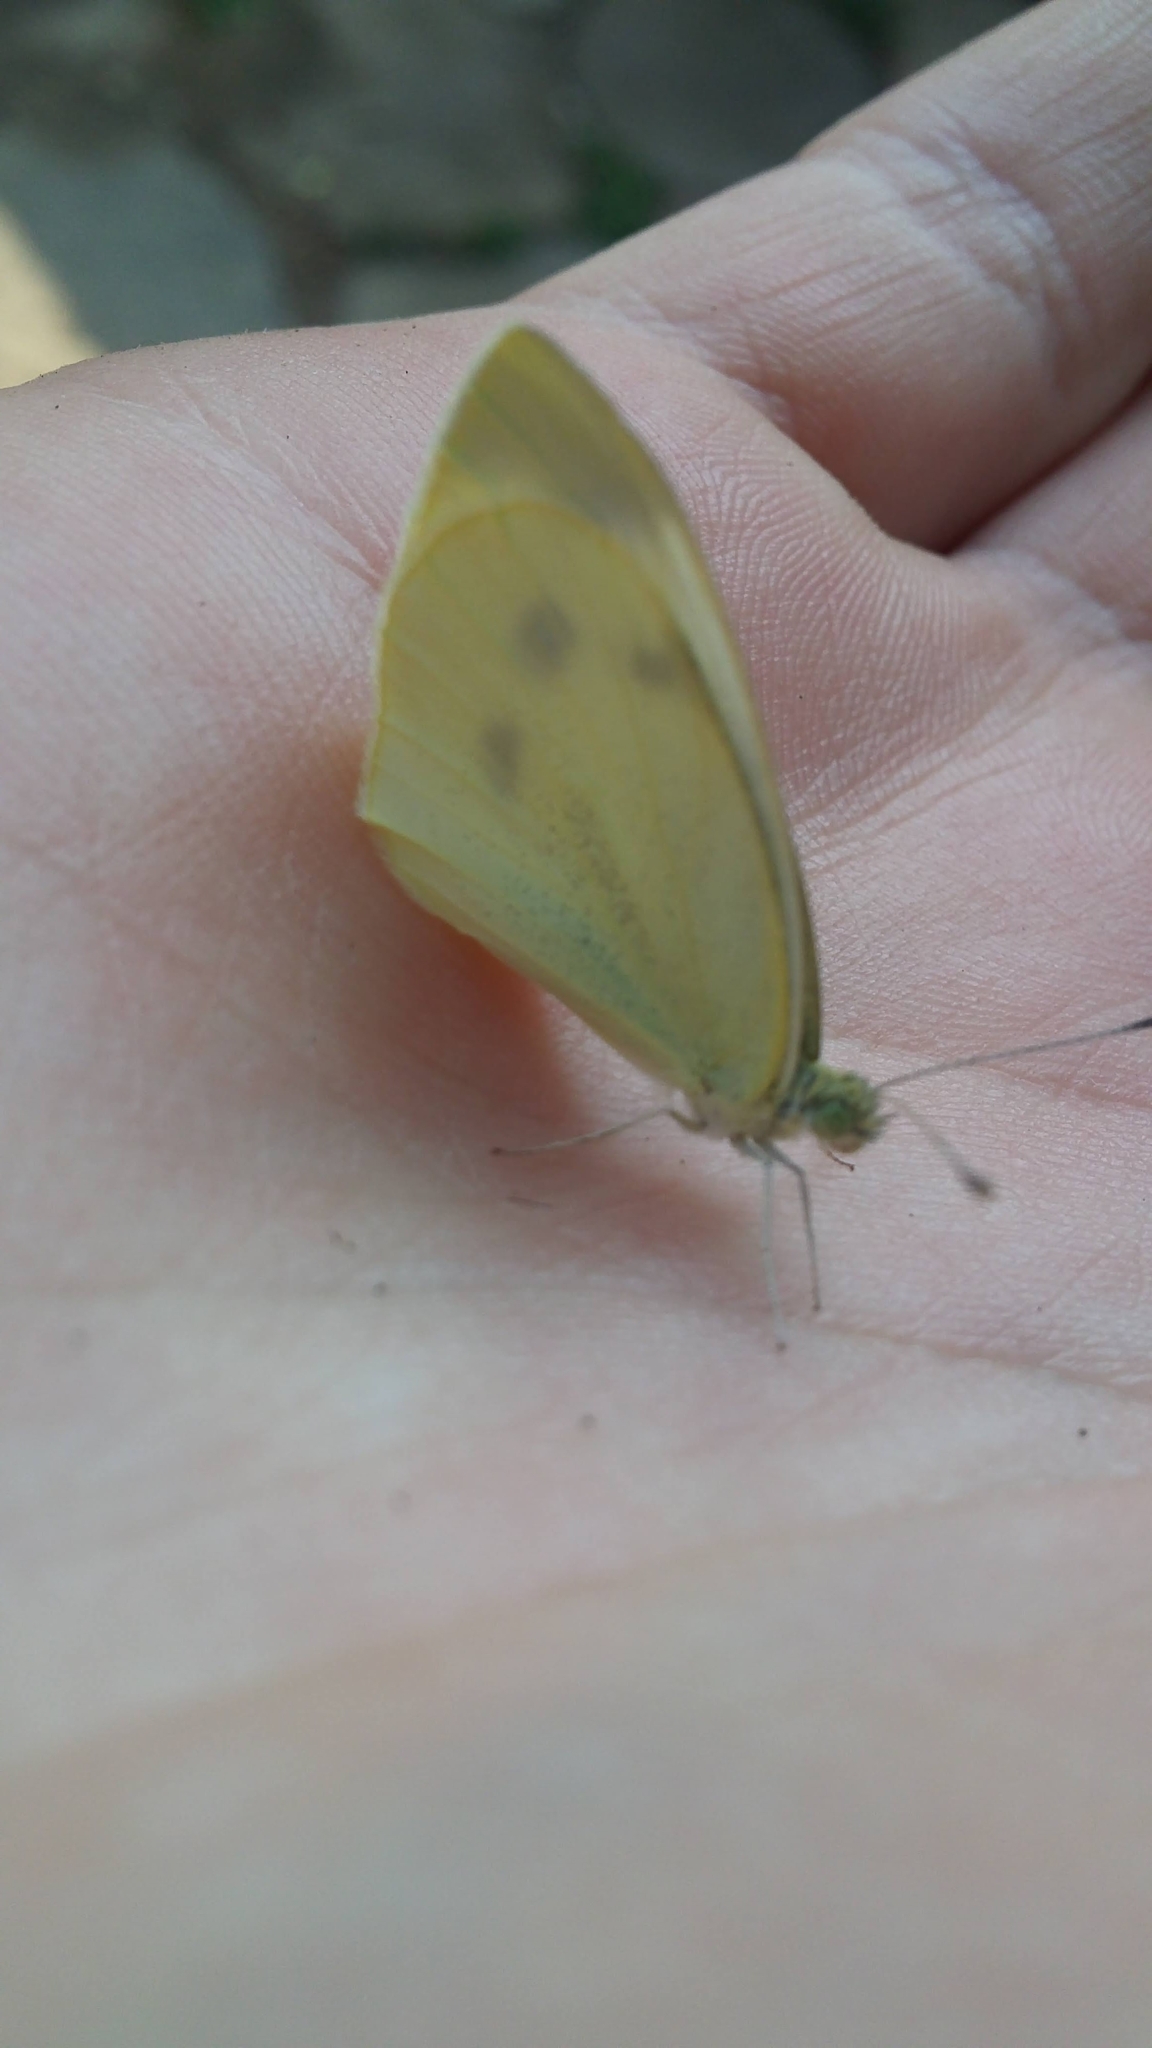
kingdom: Animalia
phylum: Arthropoda
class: Insecta
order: Lepidoptera
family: Pieridae
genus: Pieris
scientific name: Pieris rapae
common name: Small white
